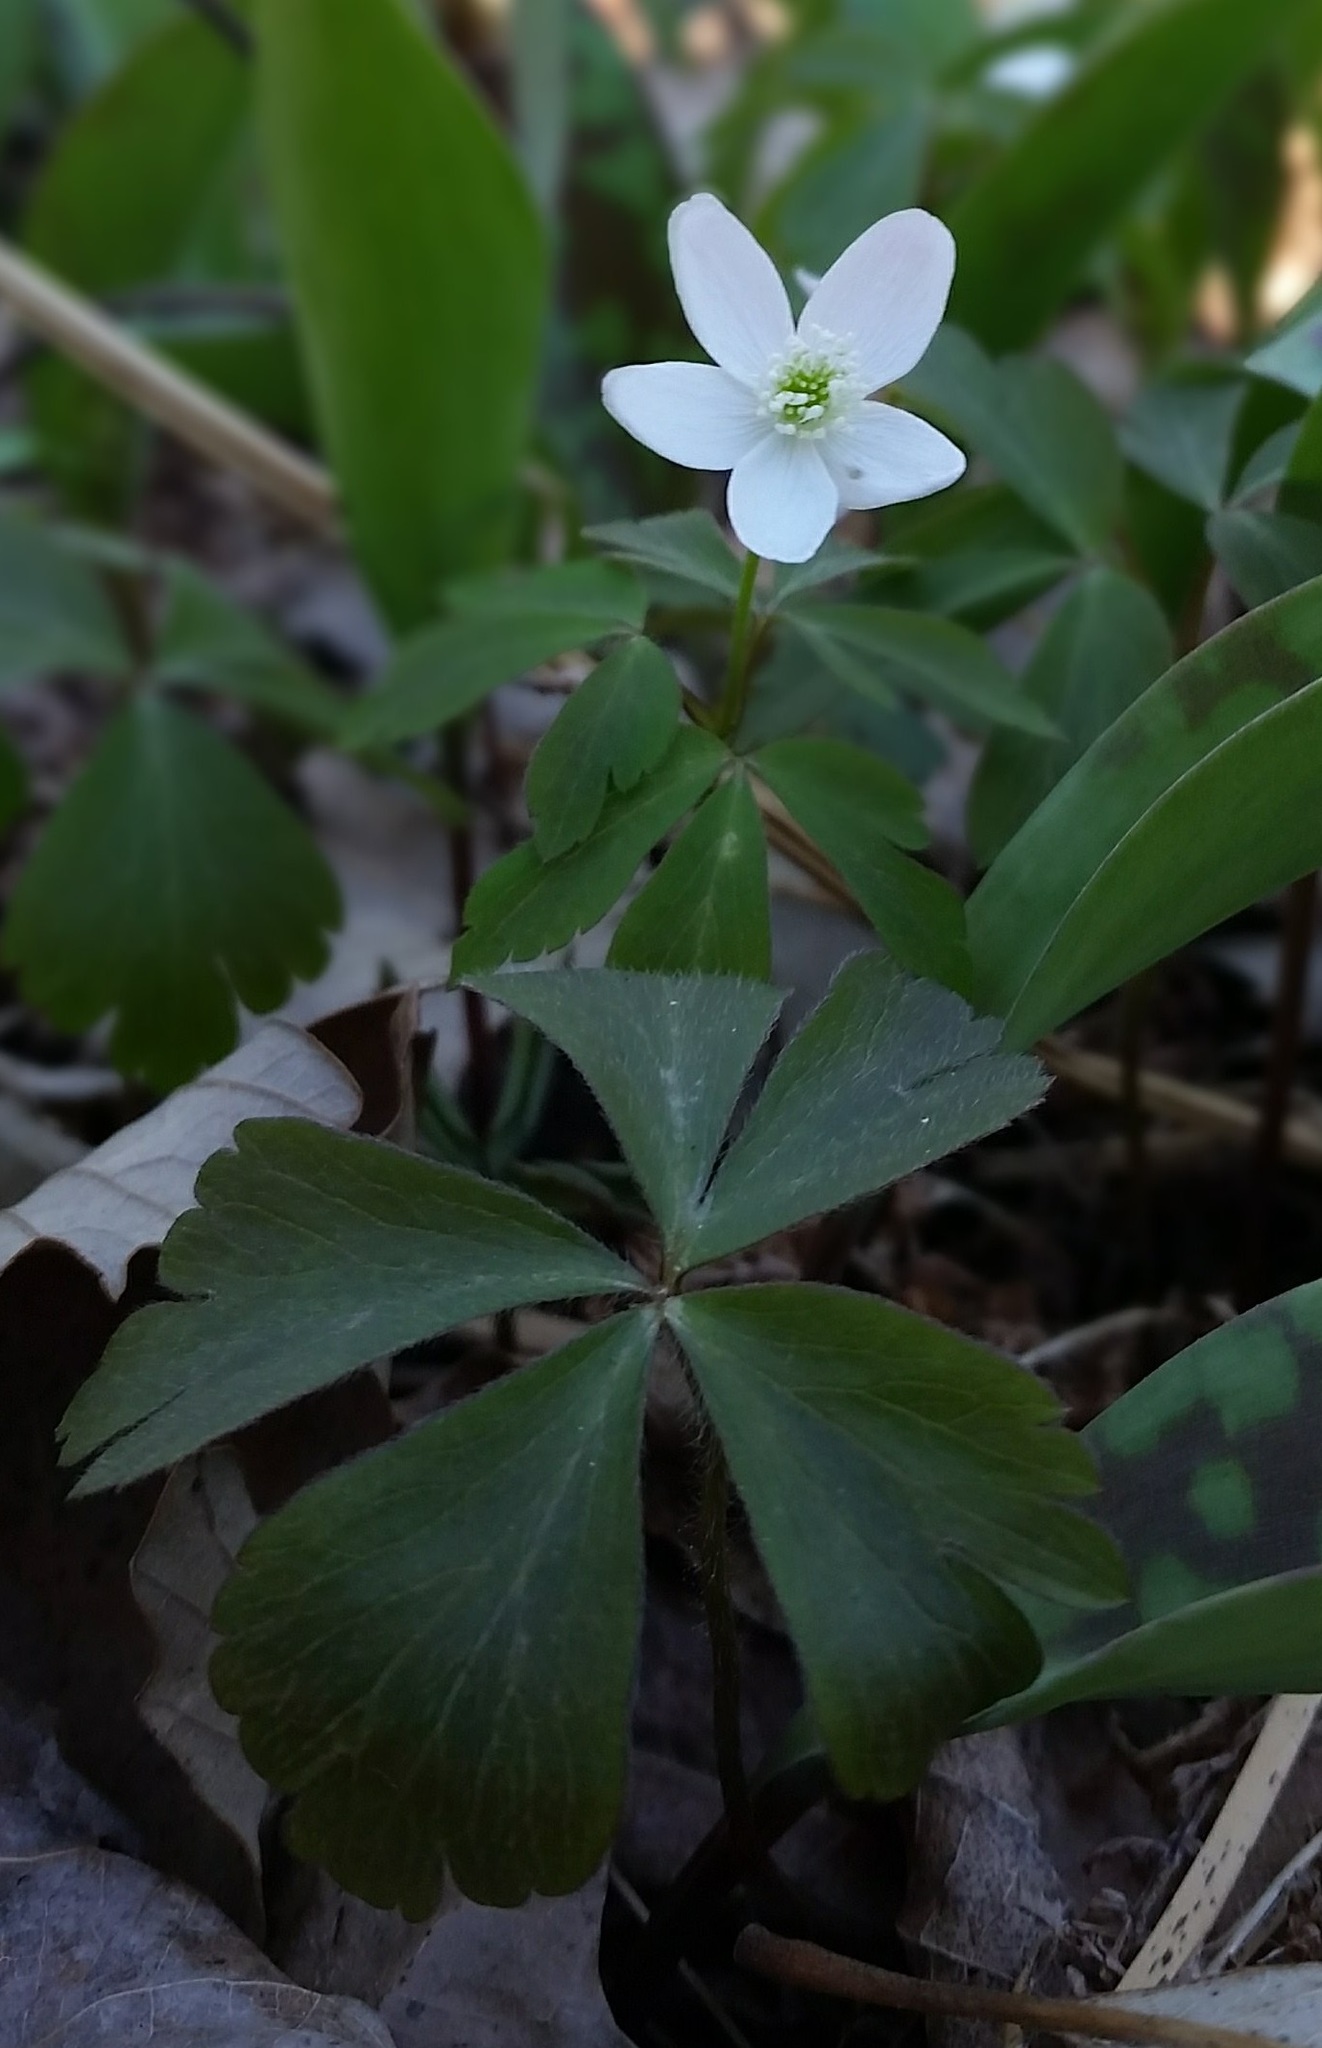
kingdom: Plantae
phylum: Tracheophyta
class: Magnoliopsida
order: Ranunculales
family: Ranunculaceae
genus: Anemone
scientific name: Anemone quinquefolia
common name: Wood anemone
